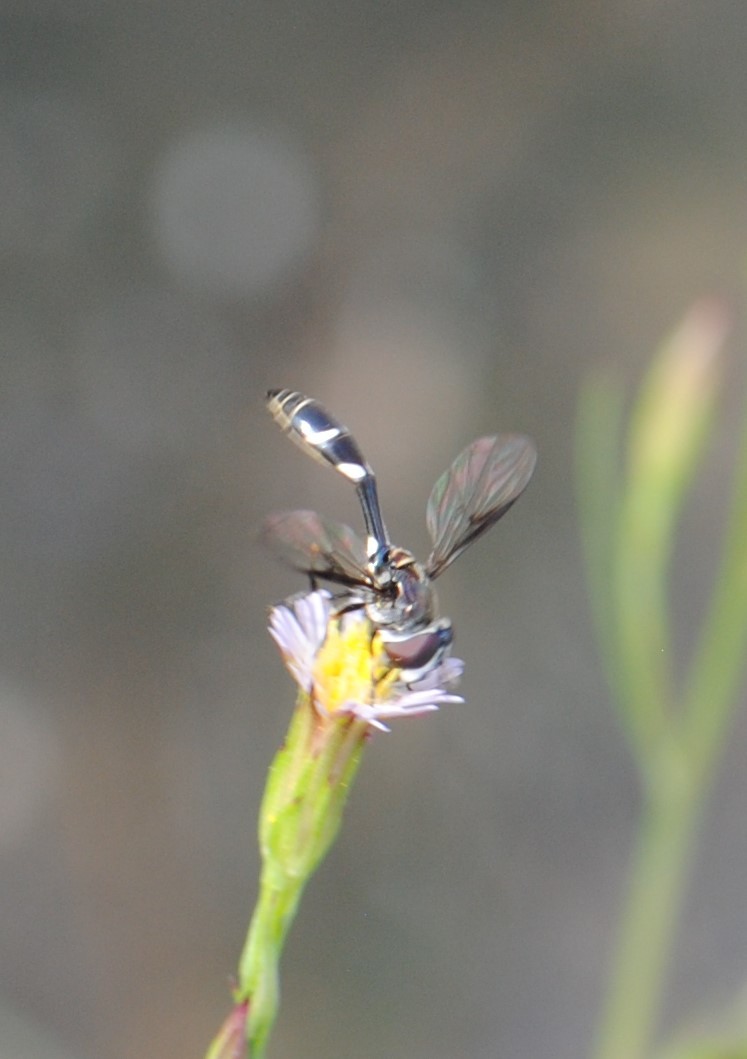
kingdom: Animalia
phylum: Arthropoda
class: Insecta
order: Diptera
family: Syrphidae
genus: Dioprosopa
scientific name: Dioprosopa clavatus
